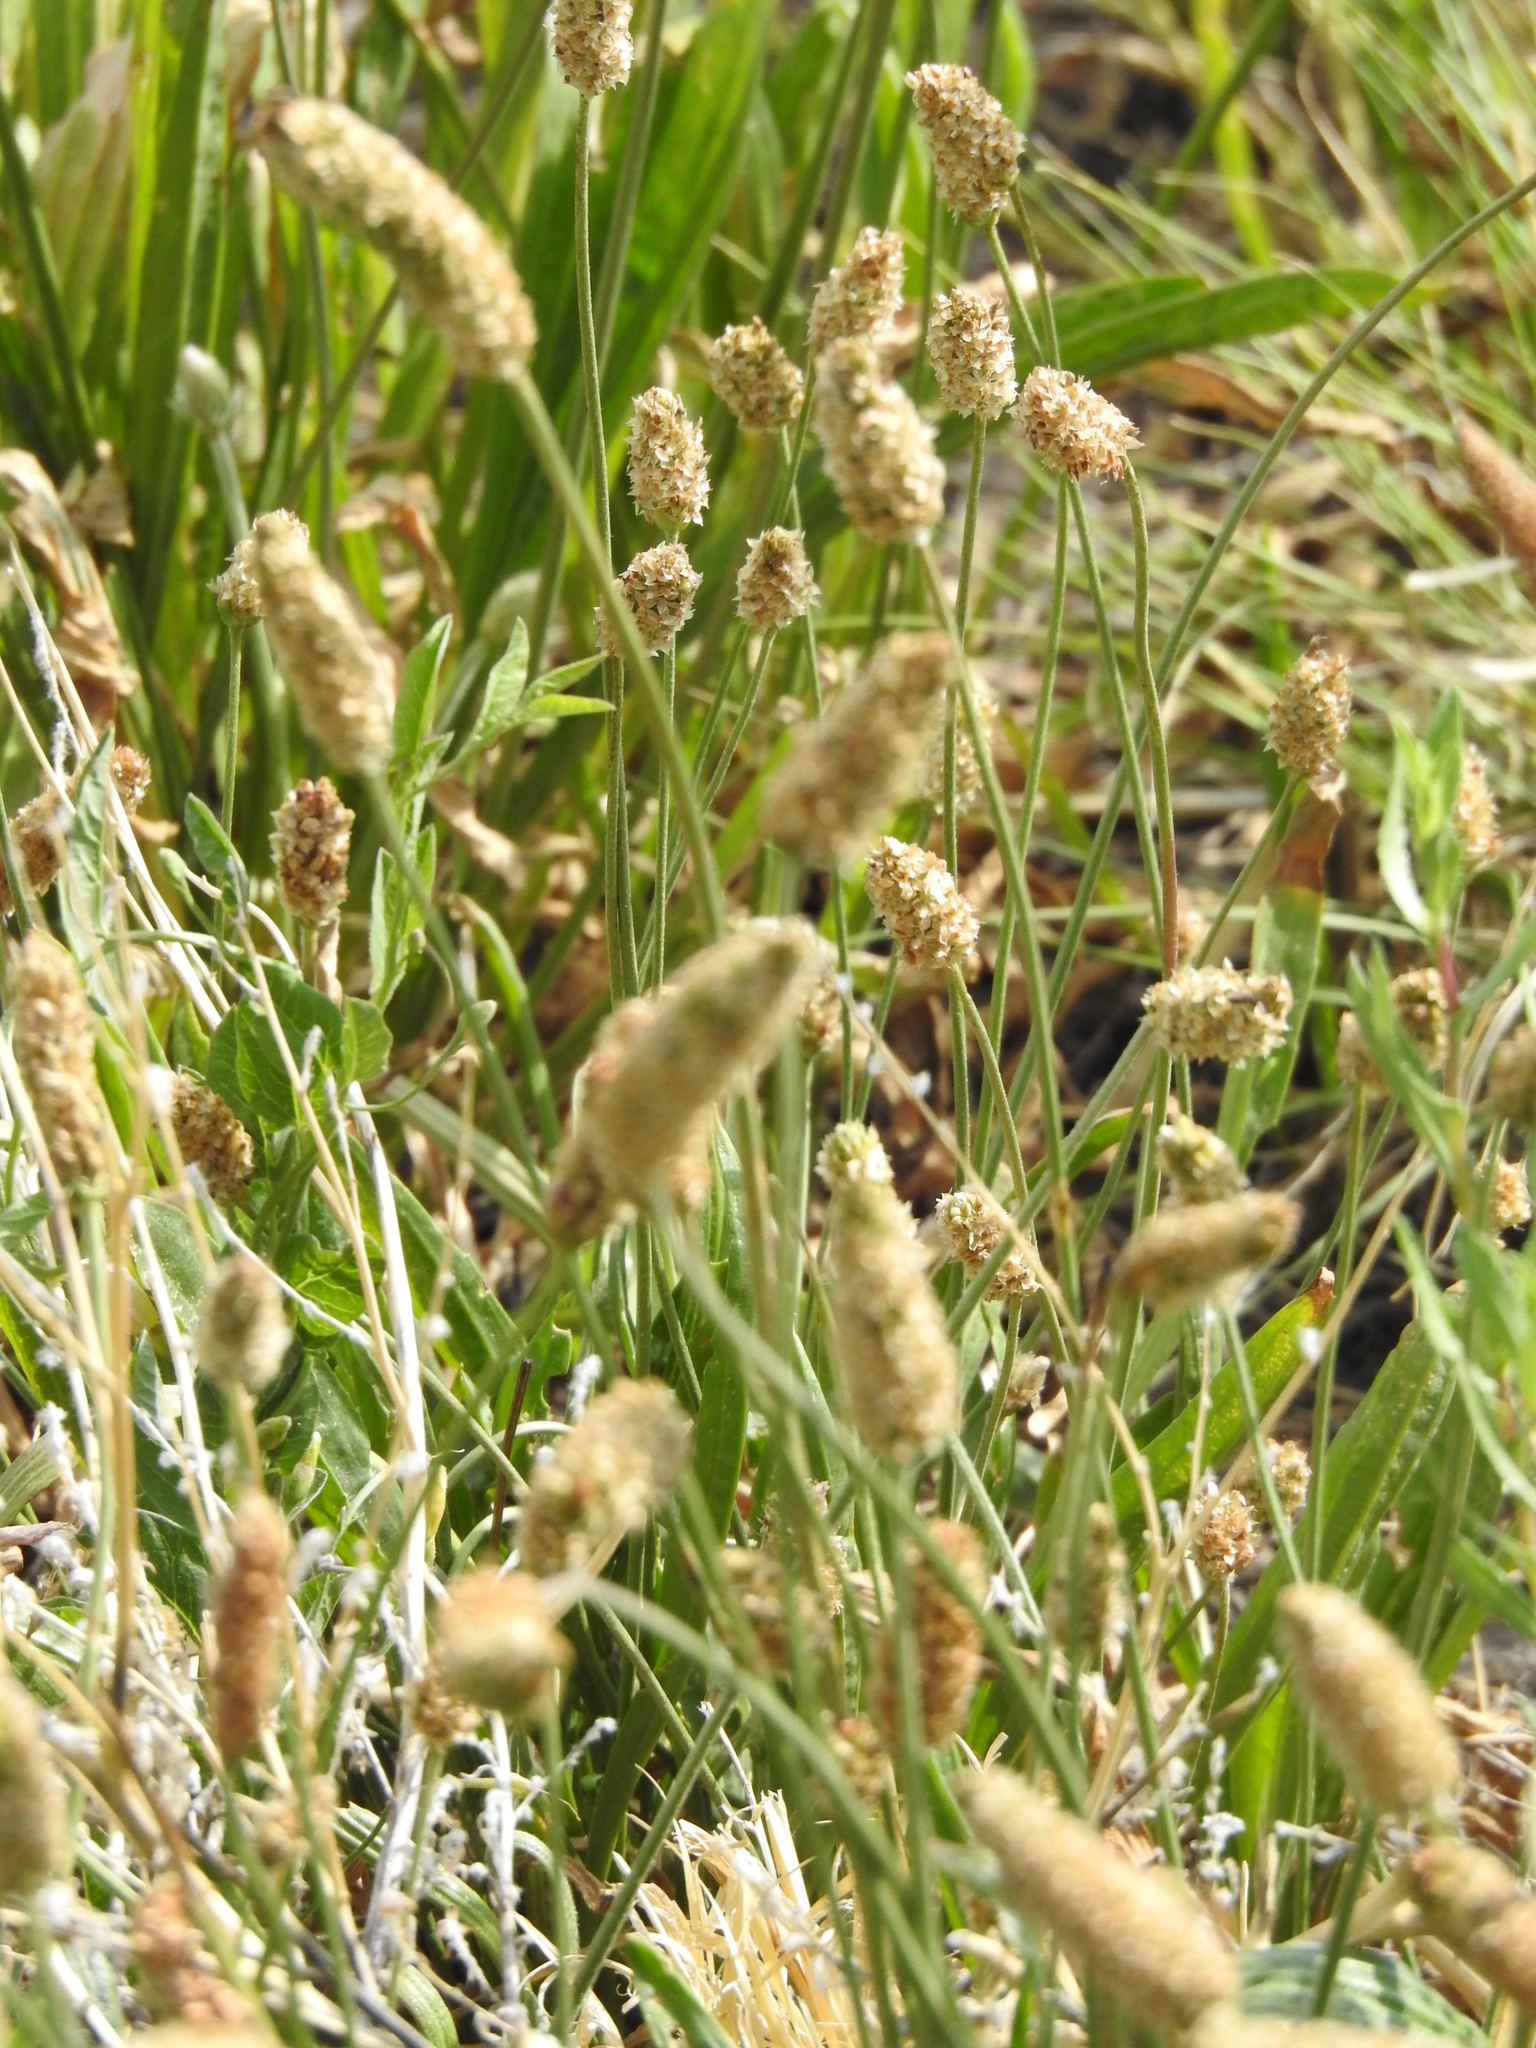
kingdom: Plantae
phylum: Tracheophyta
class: Magnoliopsida
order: Lamiales
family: Plantaginaceae
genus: Plantago
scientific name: Plantago lanceolata
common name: Ribwort plantain
